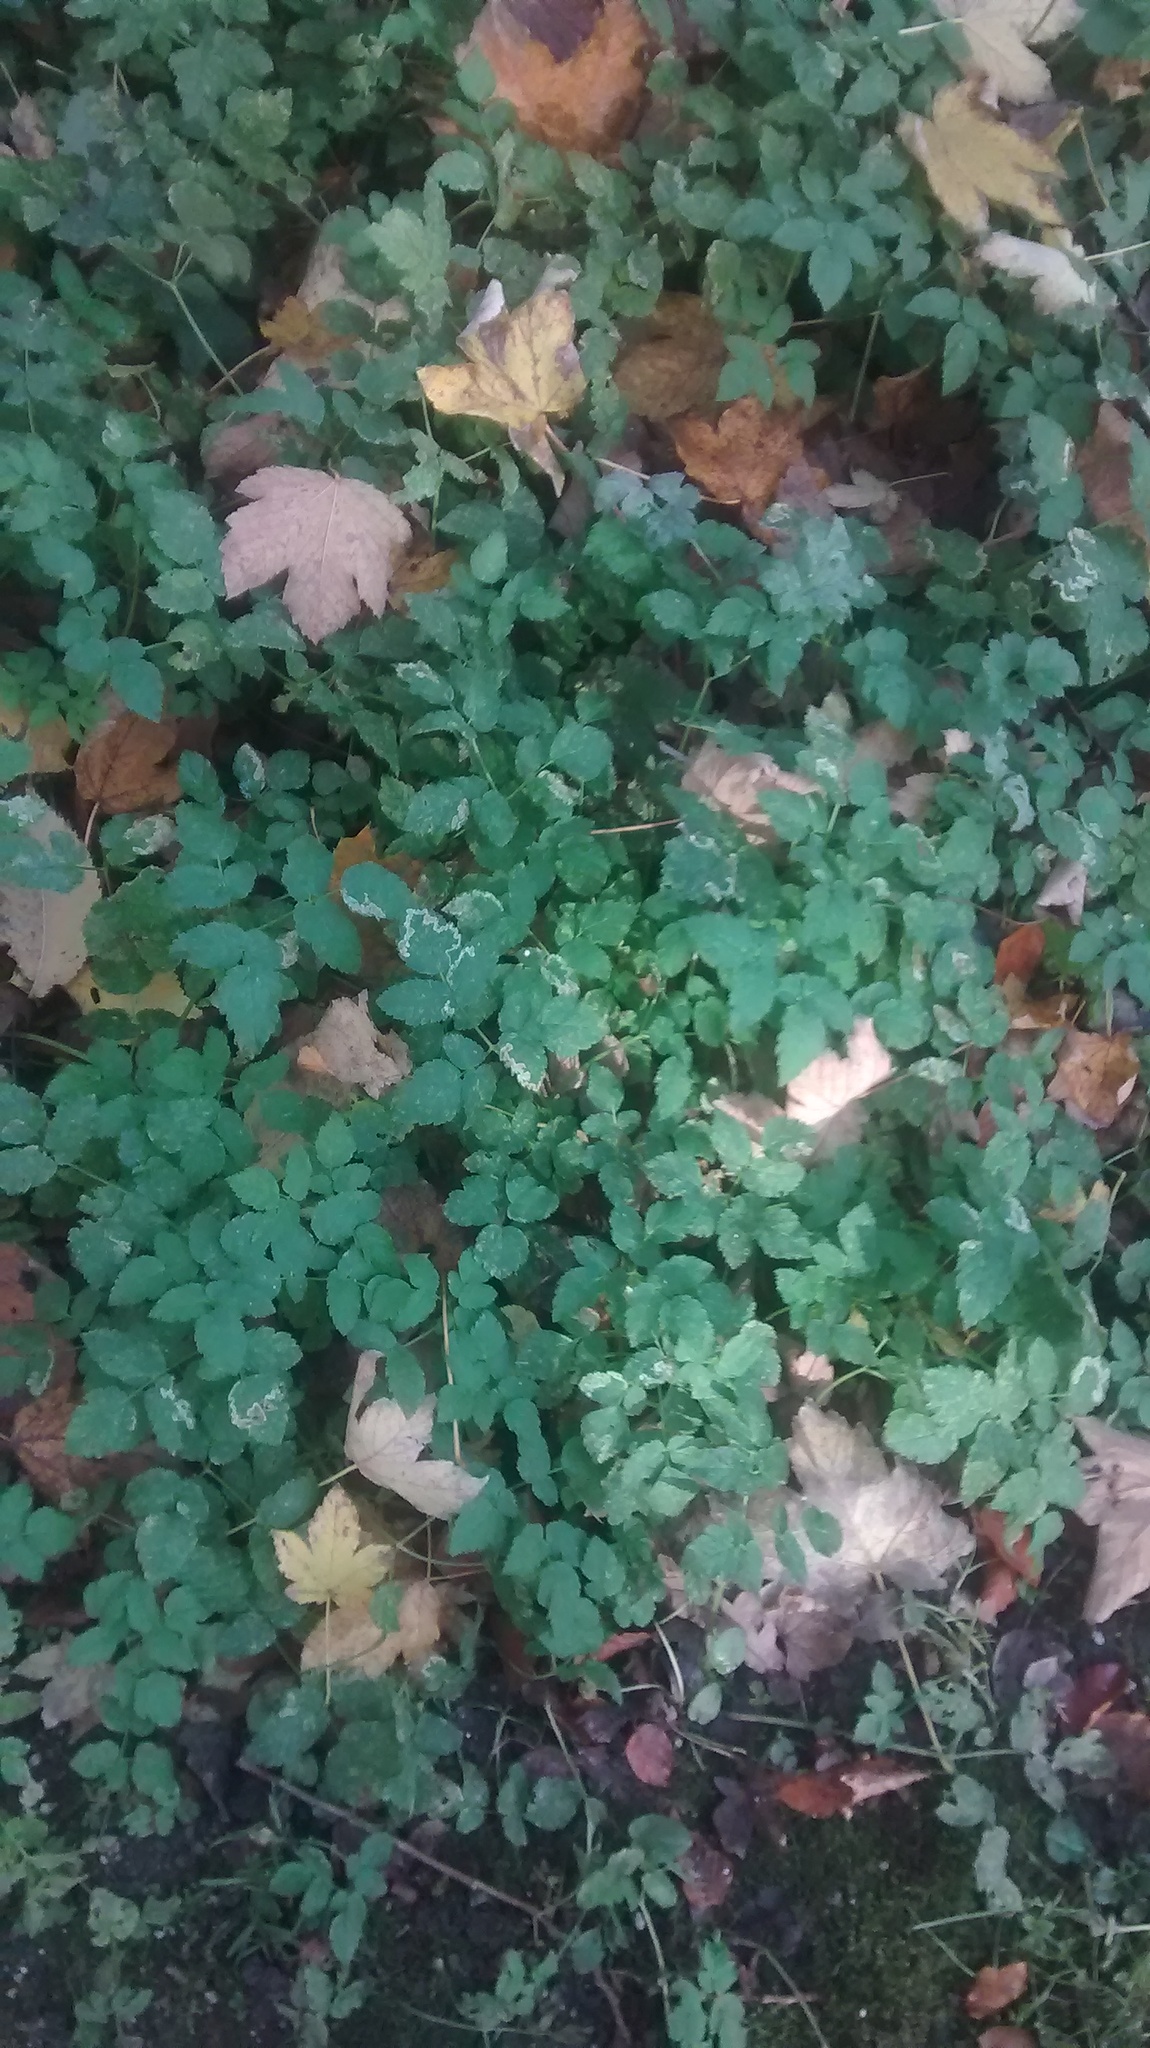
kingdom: Plantae
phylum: Tracheophyta
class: Magnoliopsida
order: Apiales
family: Apiaceae
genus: Aegopodium
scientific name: Aegopodium podagraria
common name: Ground-elder
